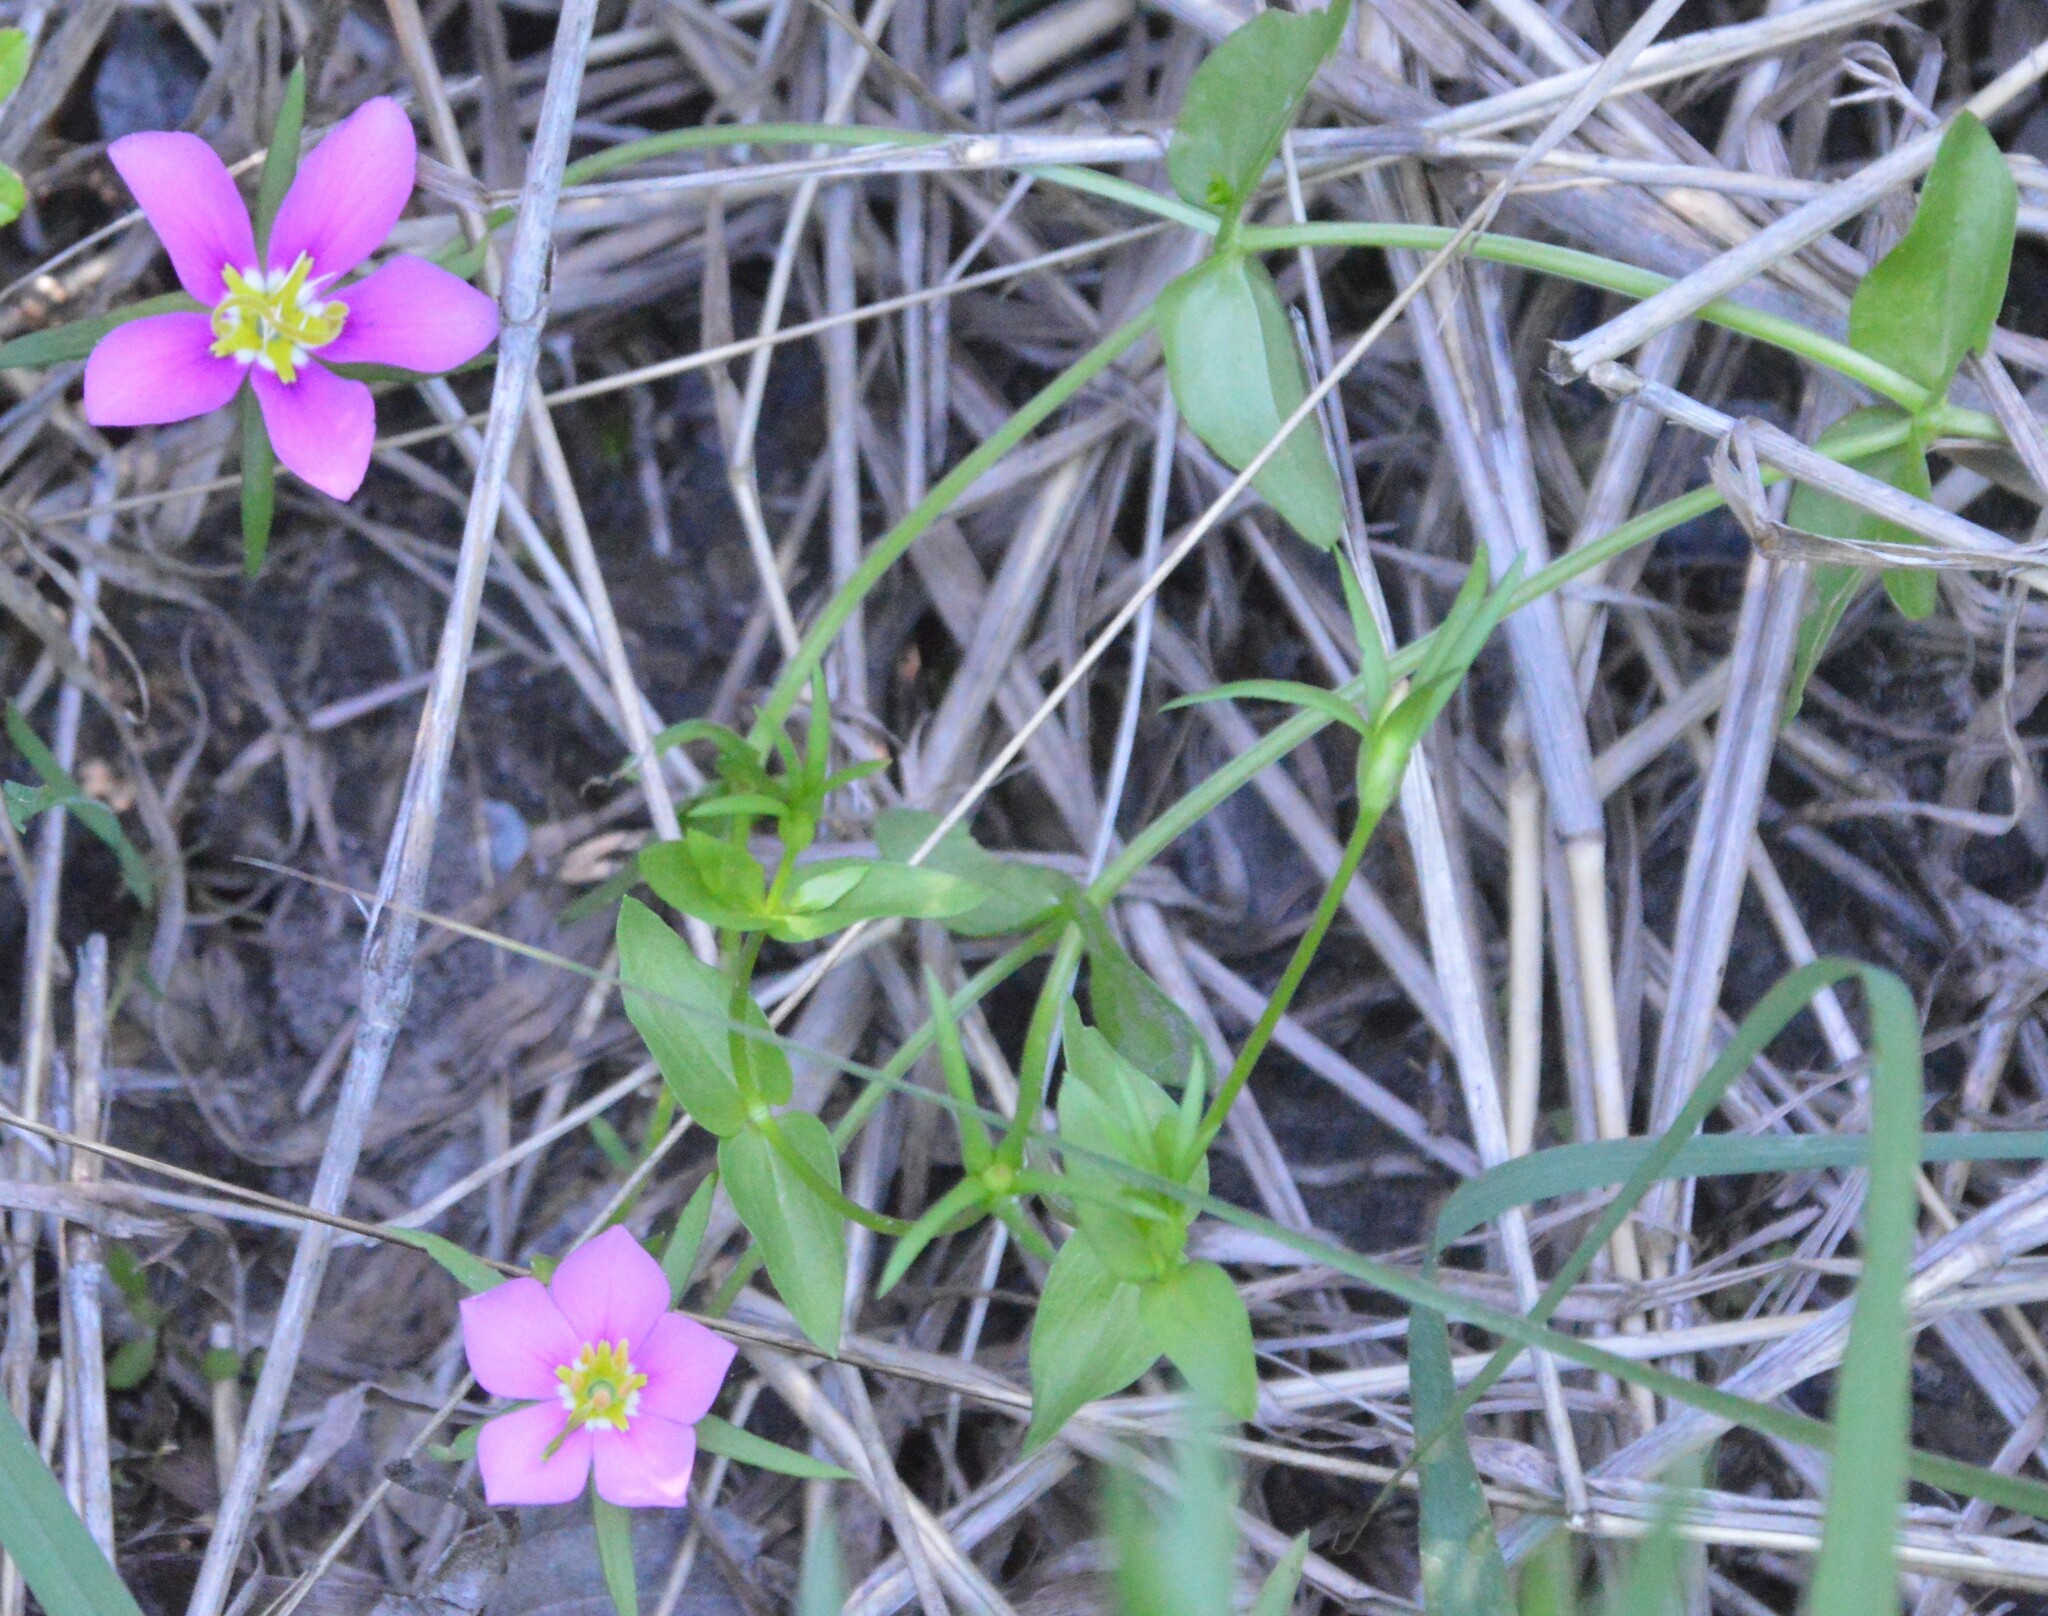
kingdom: Plantae
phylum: Tracheophyta
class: Magnoliopsida
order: Gentianales
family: Gentianaceae
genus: Sabatia
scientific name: Sabatia campestris
